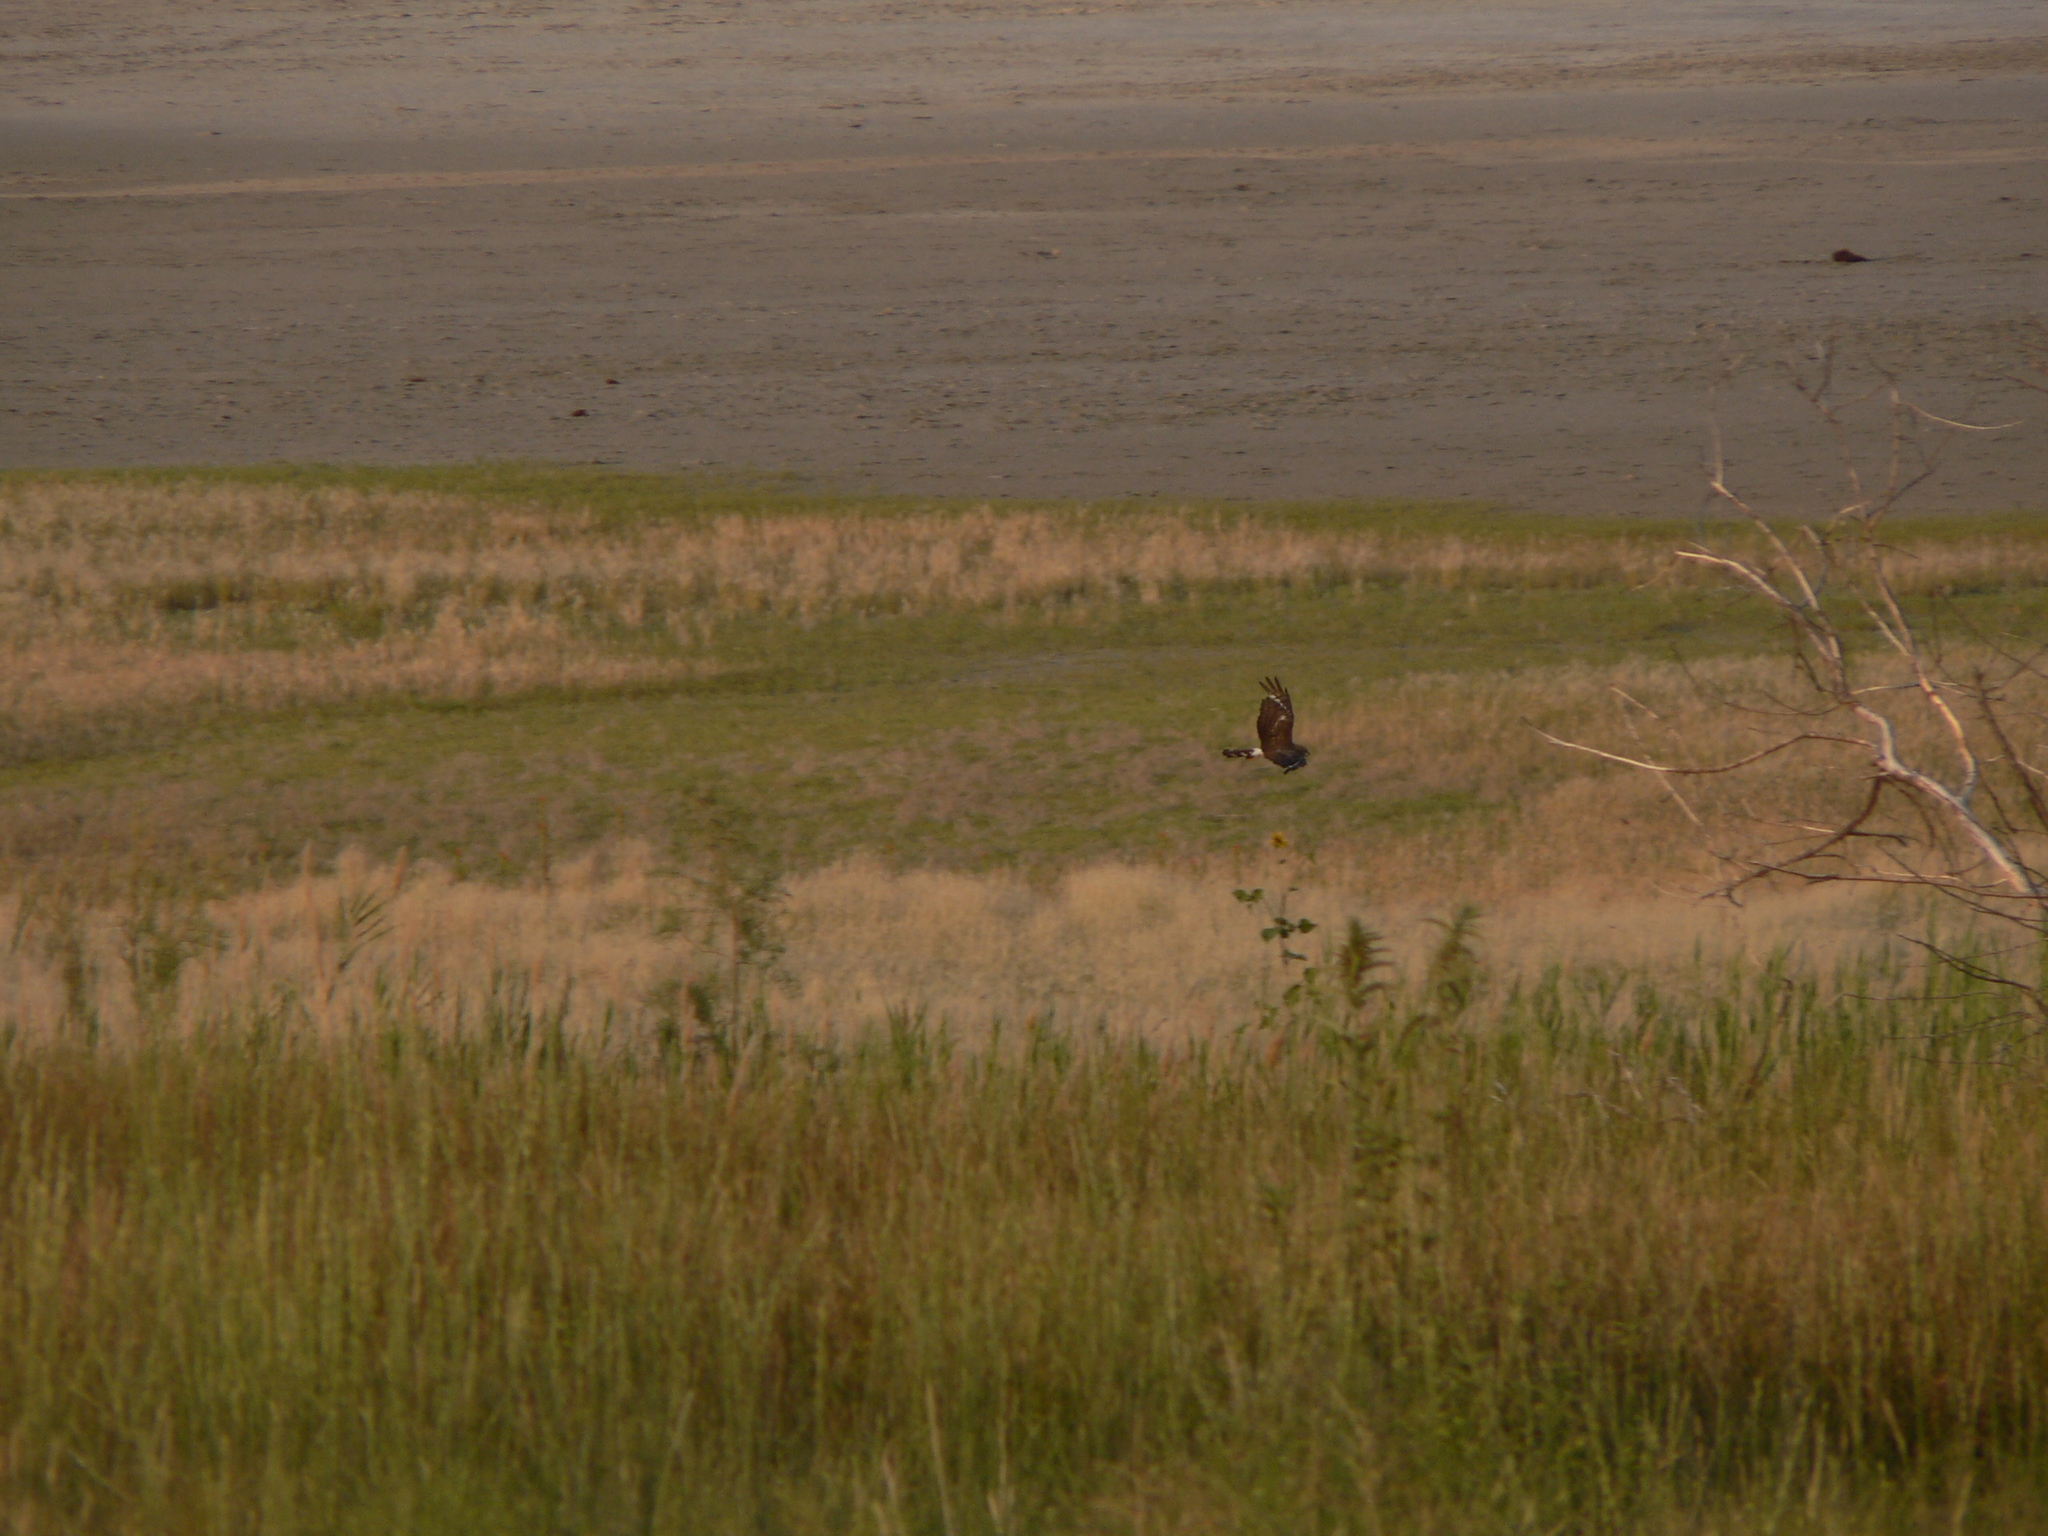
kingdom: Animalia
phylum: Chordata
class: Aves
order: Accipitriformes
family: Accipitridae
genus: Circus
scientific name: Circus cyaneus
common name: Hen harrier
